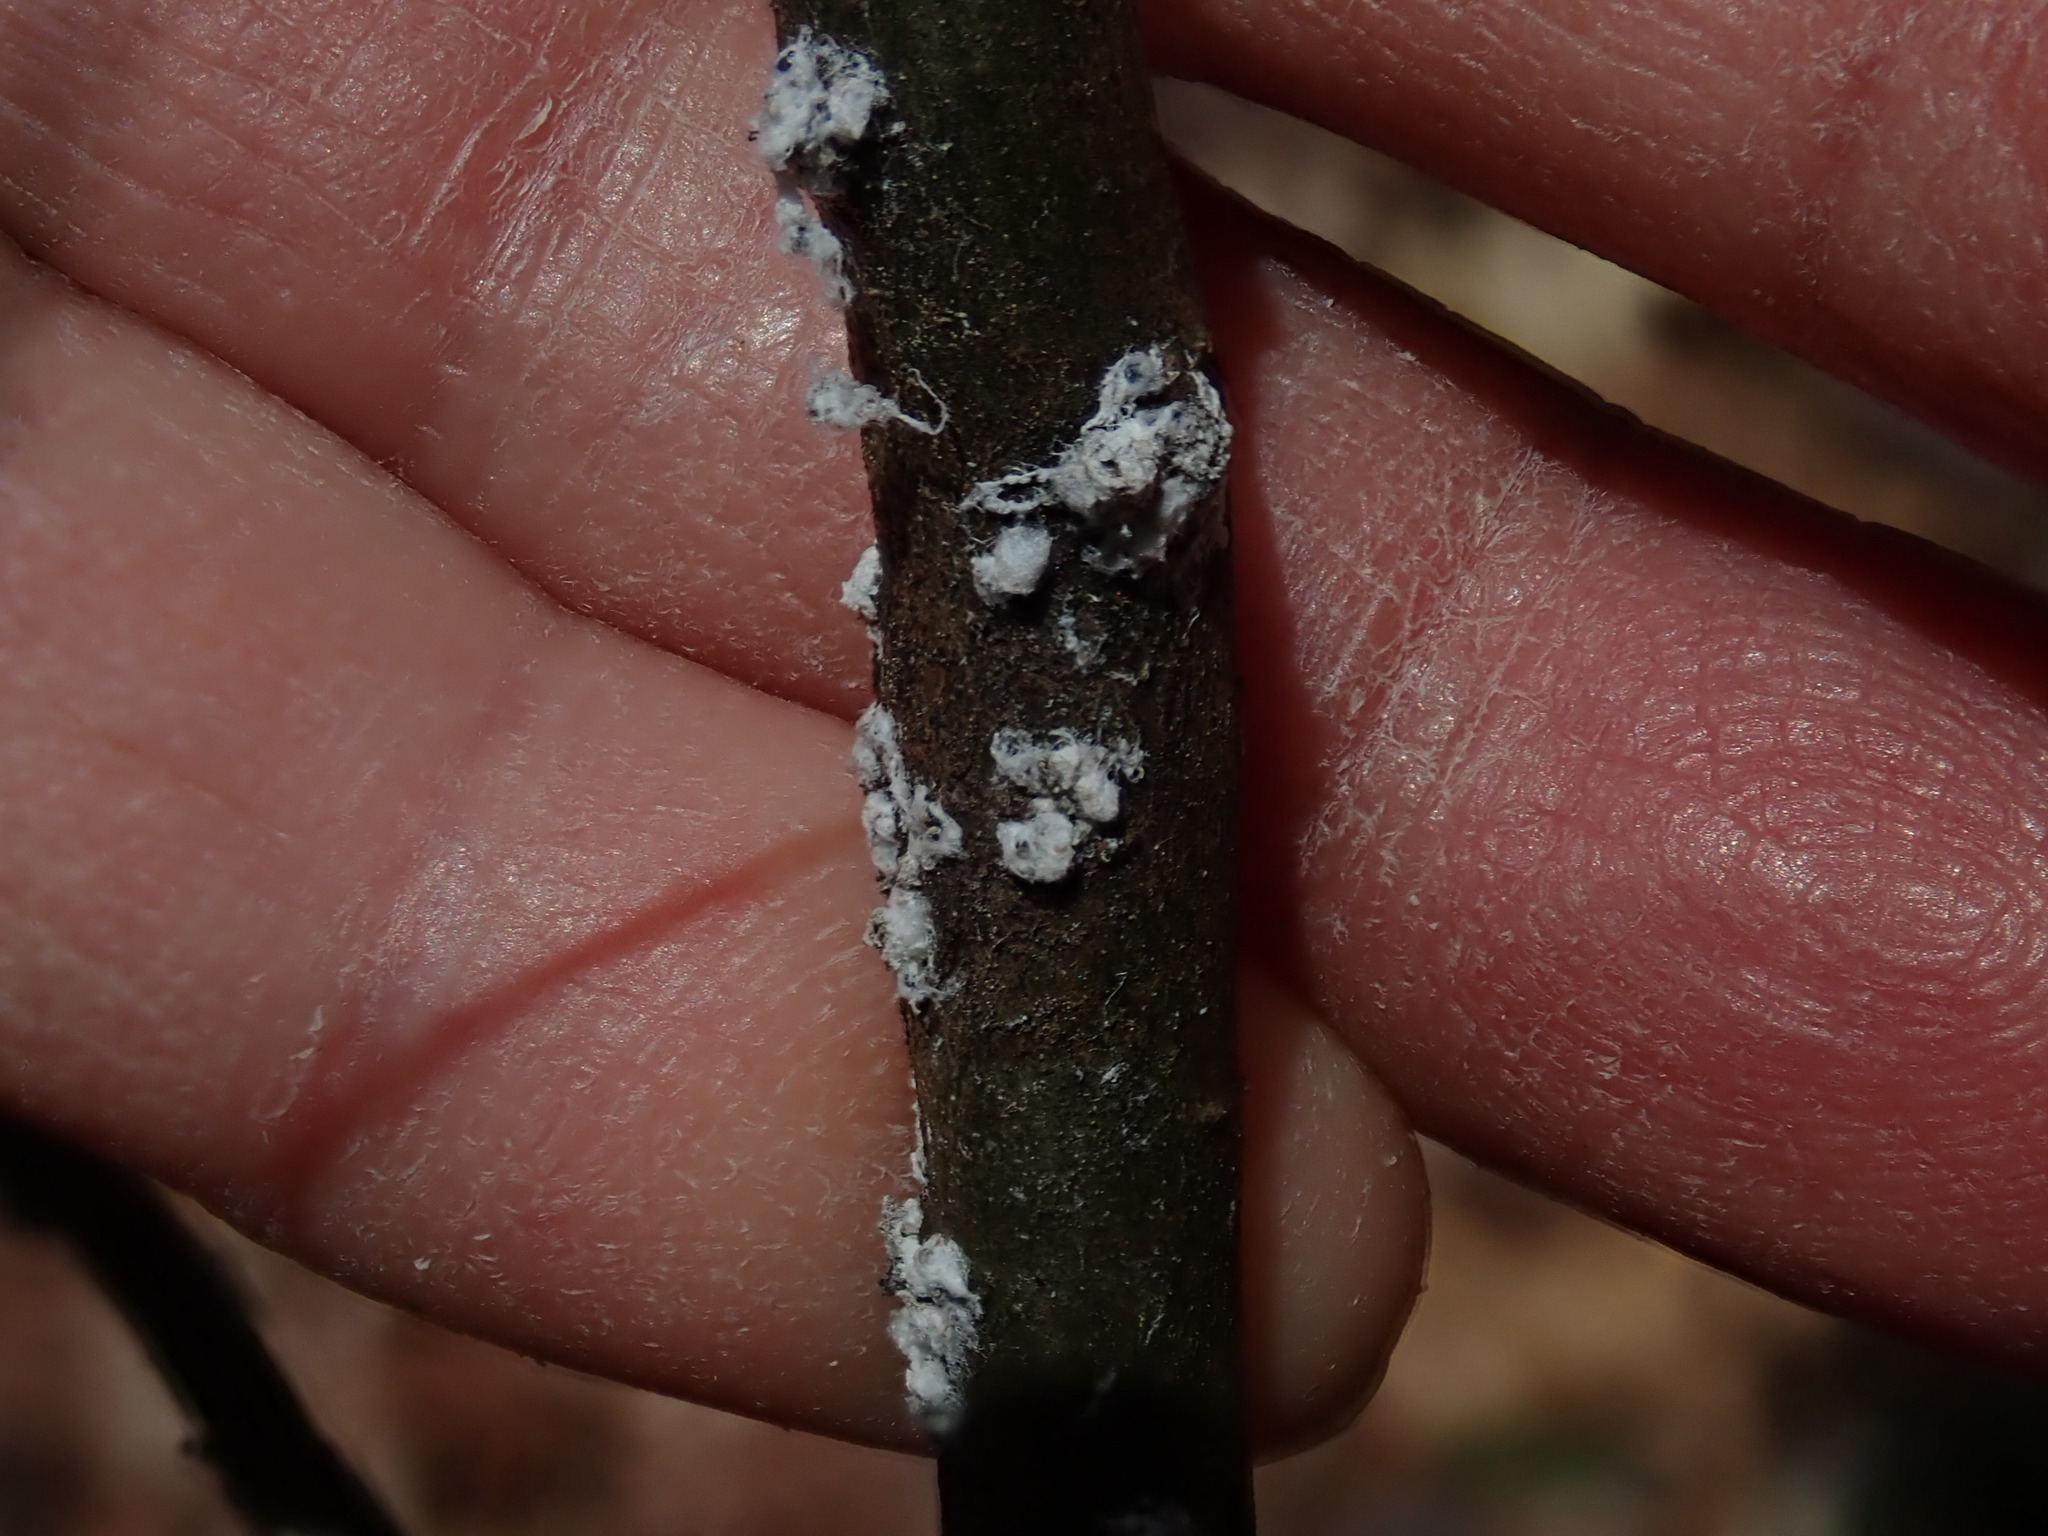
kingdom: Animalia
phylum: Arthropoda
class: Insecta
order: Hemiptera
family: Adelgidae
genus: Pineus
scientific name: Pineus strobi
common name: Pine bark adelgid
